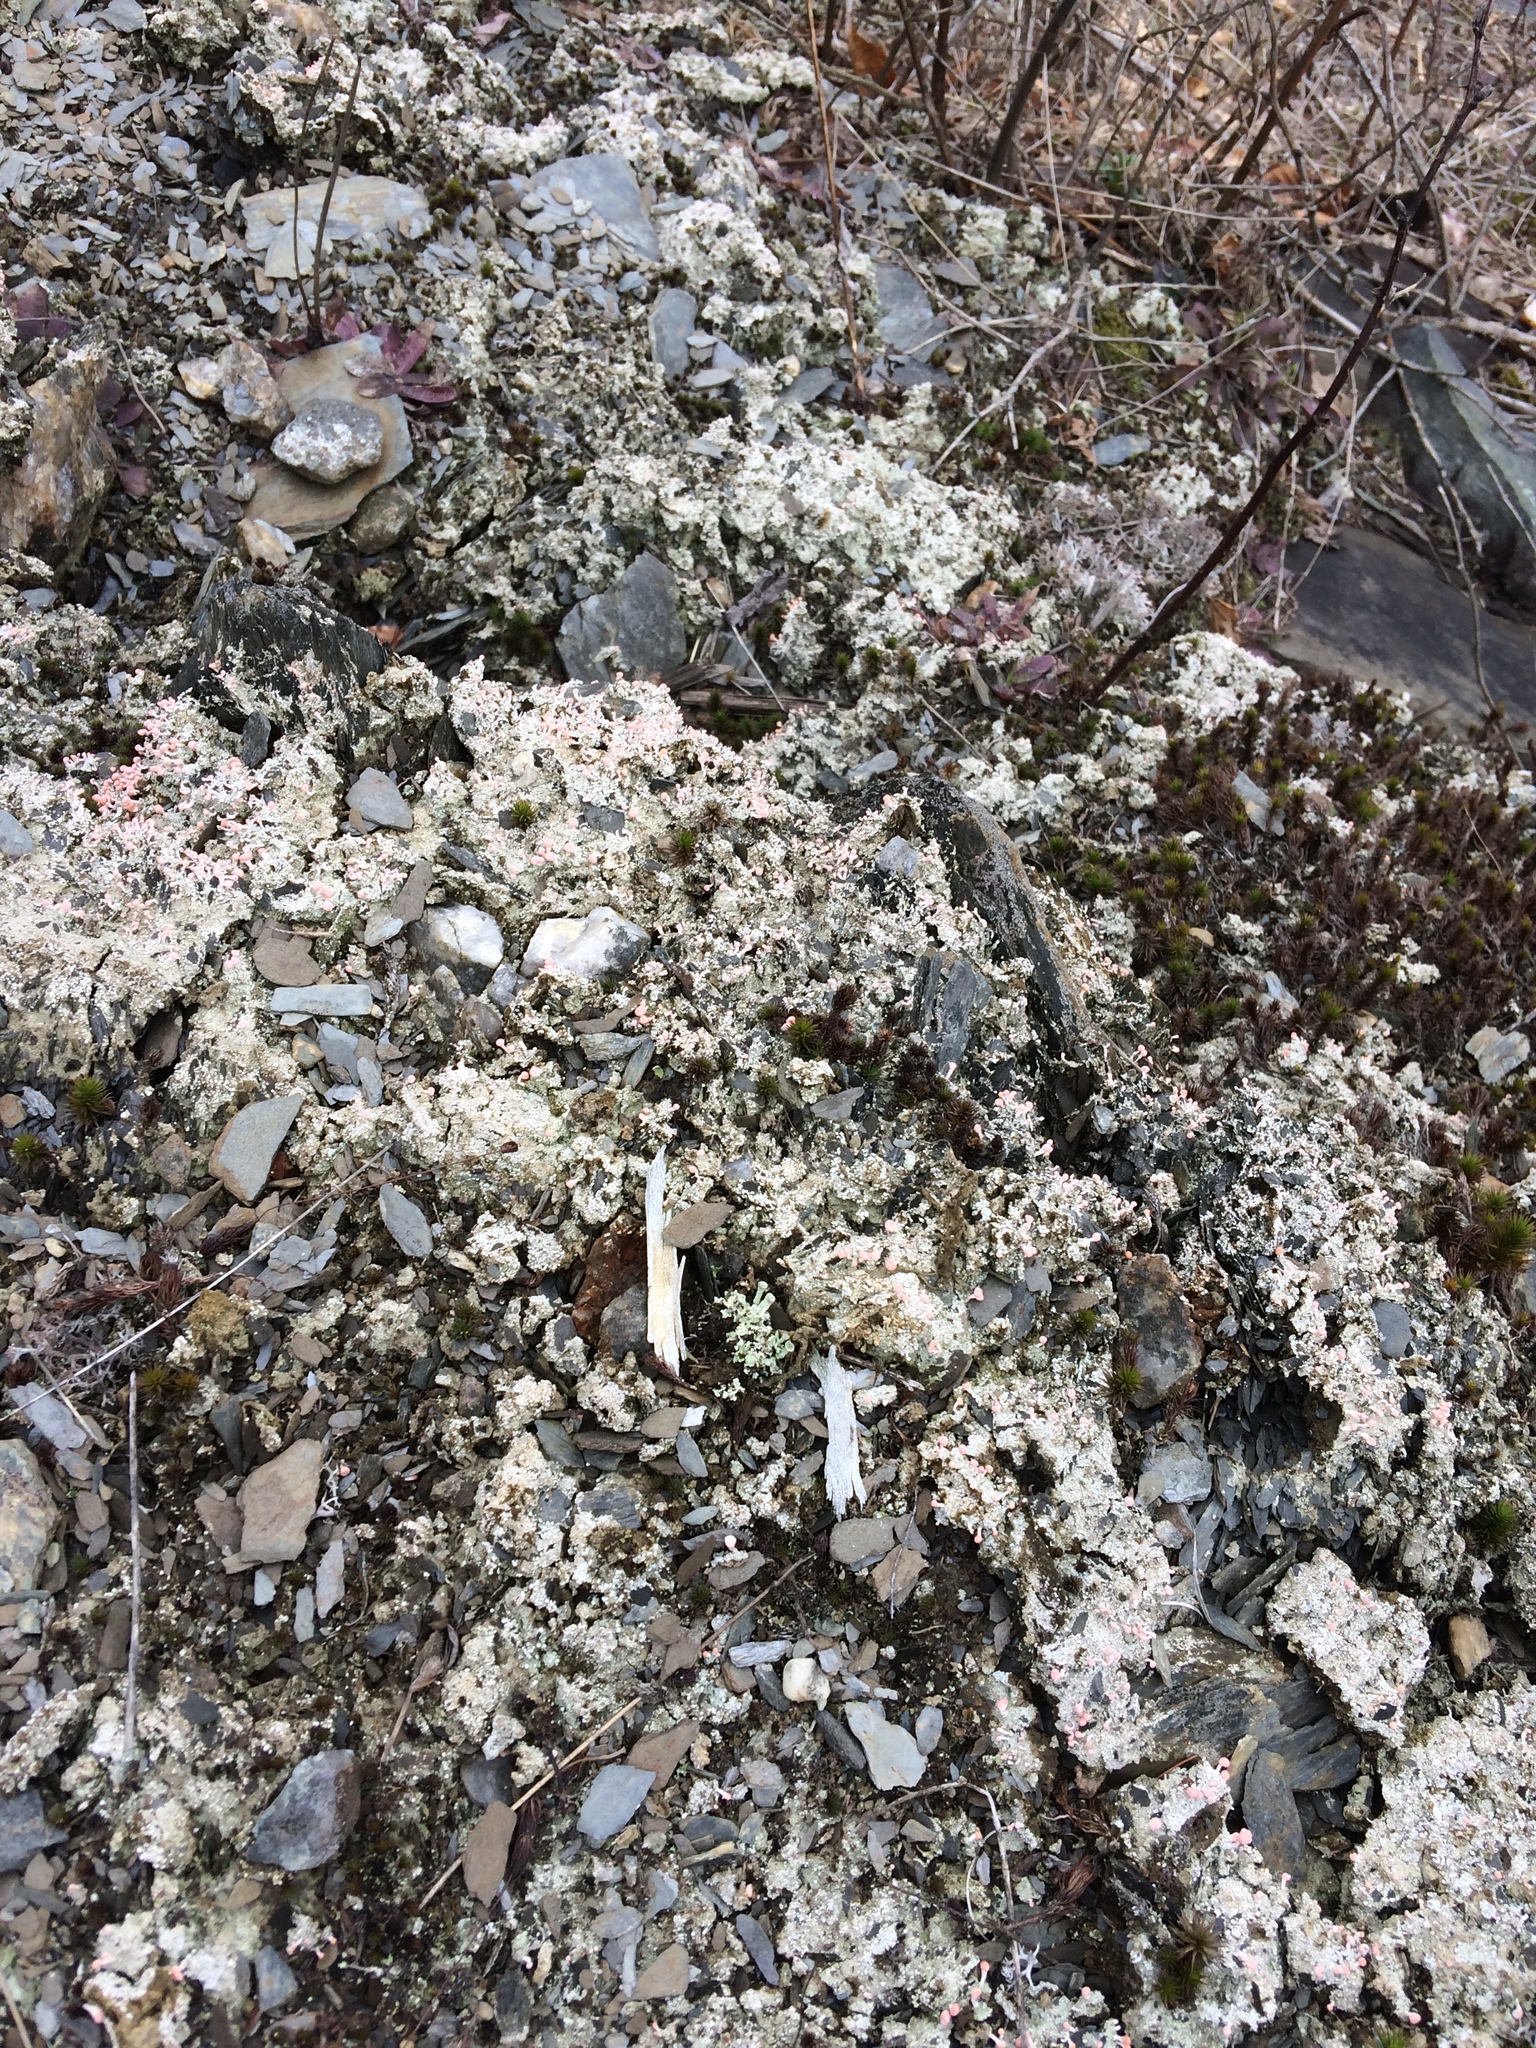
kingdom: Fungi
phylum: Ascomycota
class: Lecanoromycetes
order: Pertusariales
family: Icmadophilaceae
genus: Dibaeis
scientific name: Dibaeis baeomyces
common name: Pink earth lichen
